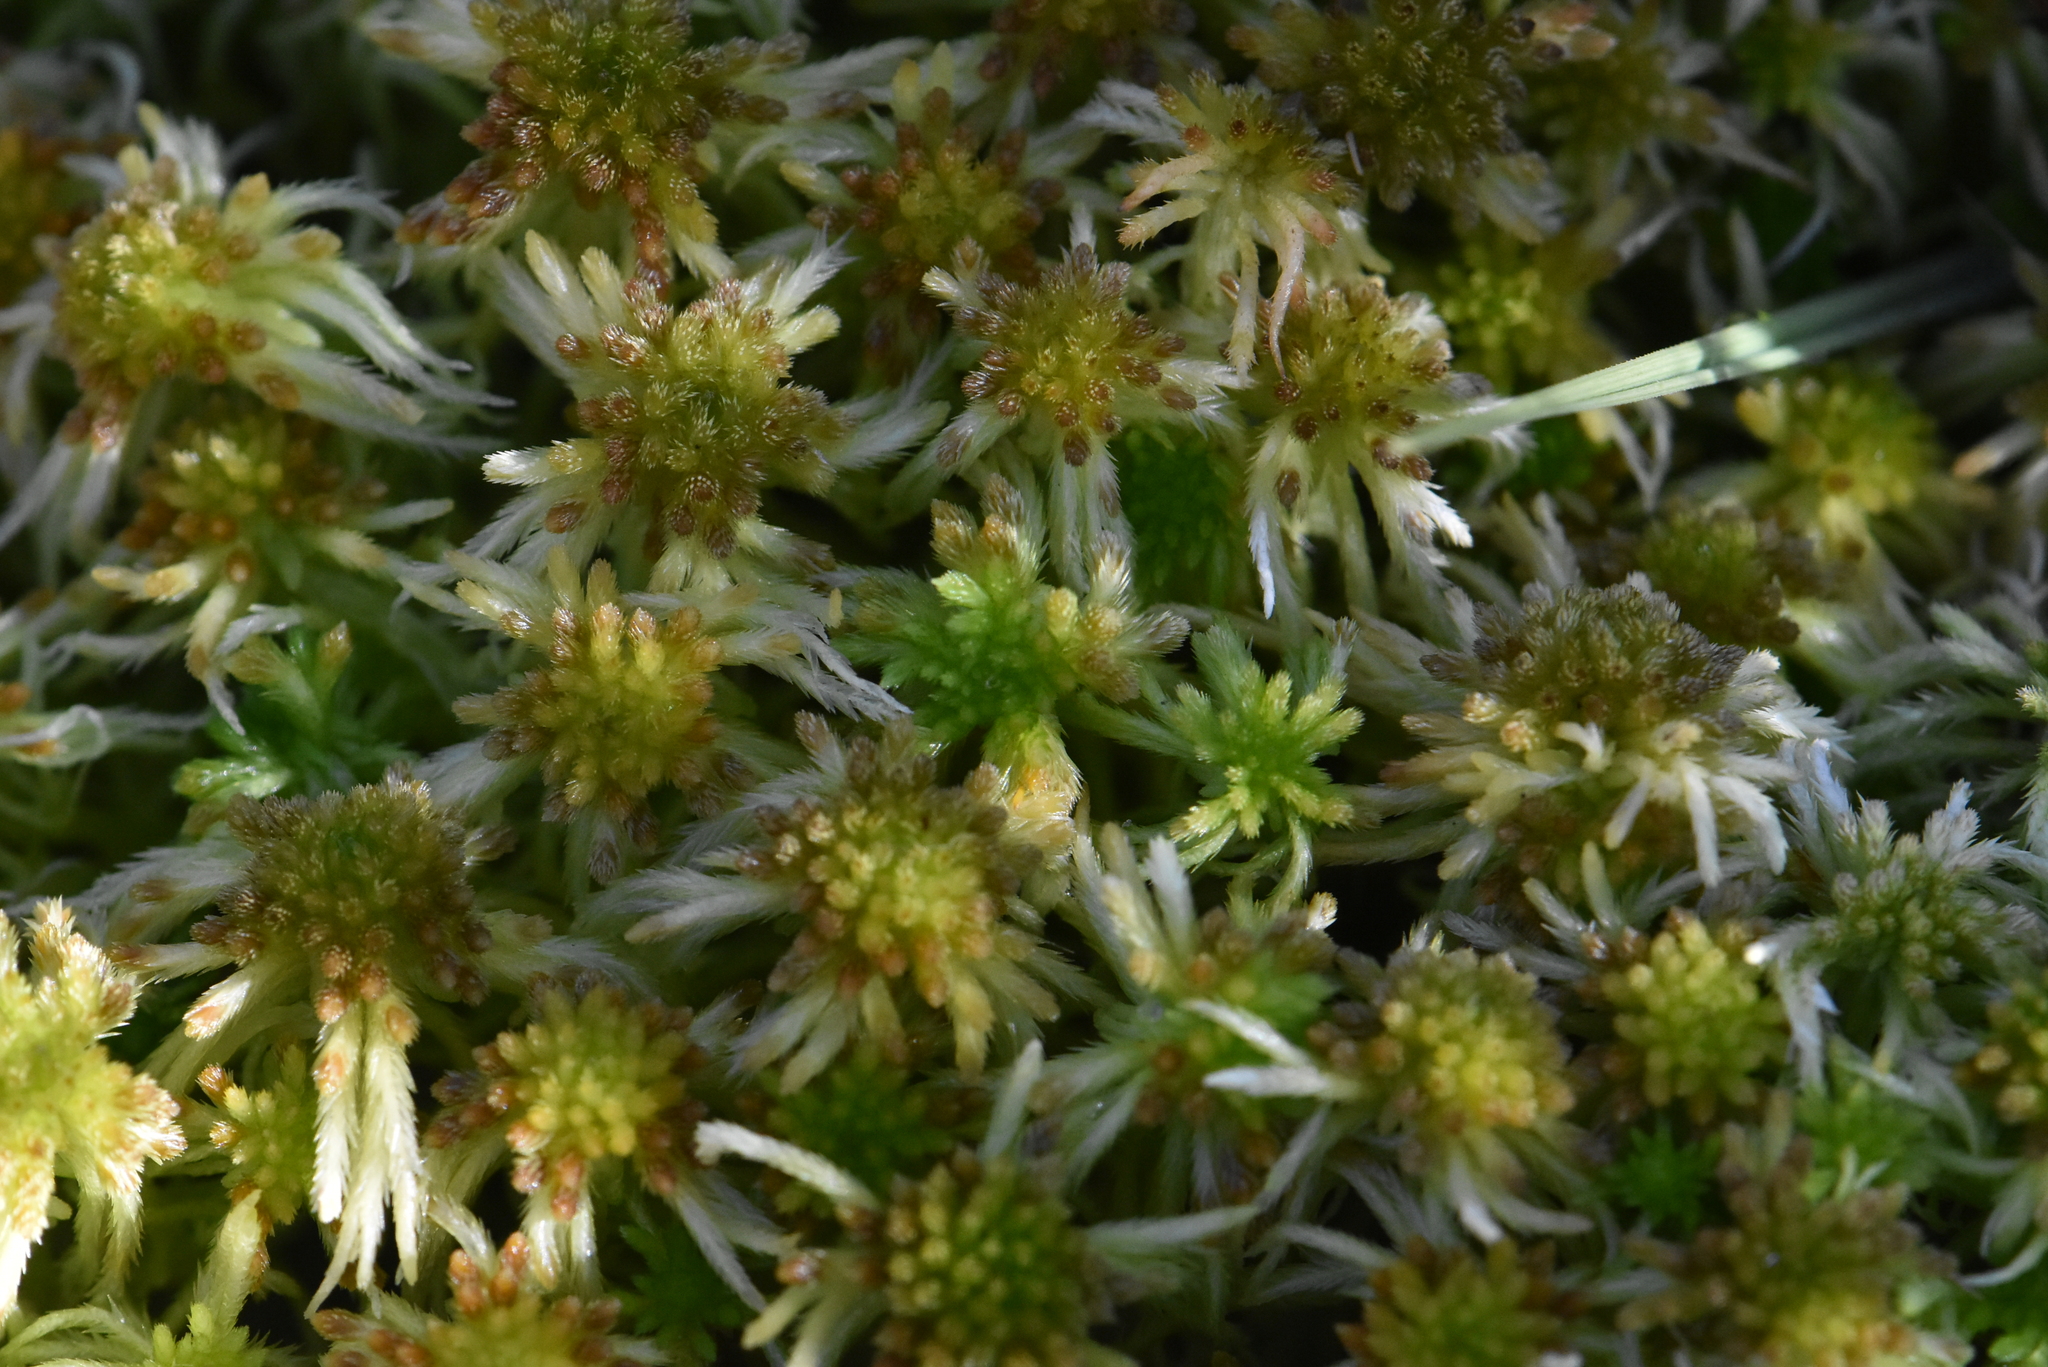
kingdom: Plantae
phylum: Bryophyta
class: Sphagnopsida
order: Sphagnales
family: Sphagnaceae
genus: Sphagnum
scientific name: Sphagnum angustifolium
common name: Narrow-leaved peat moss
